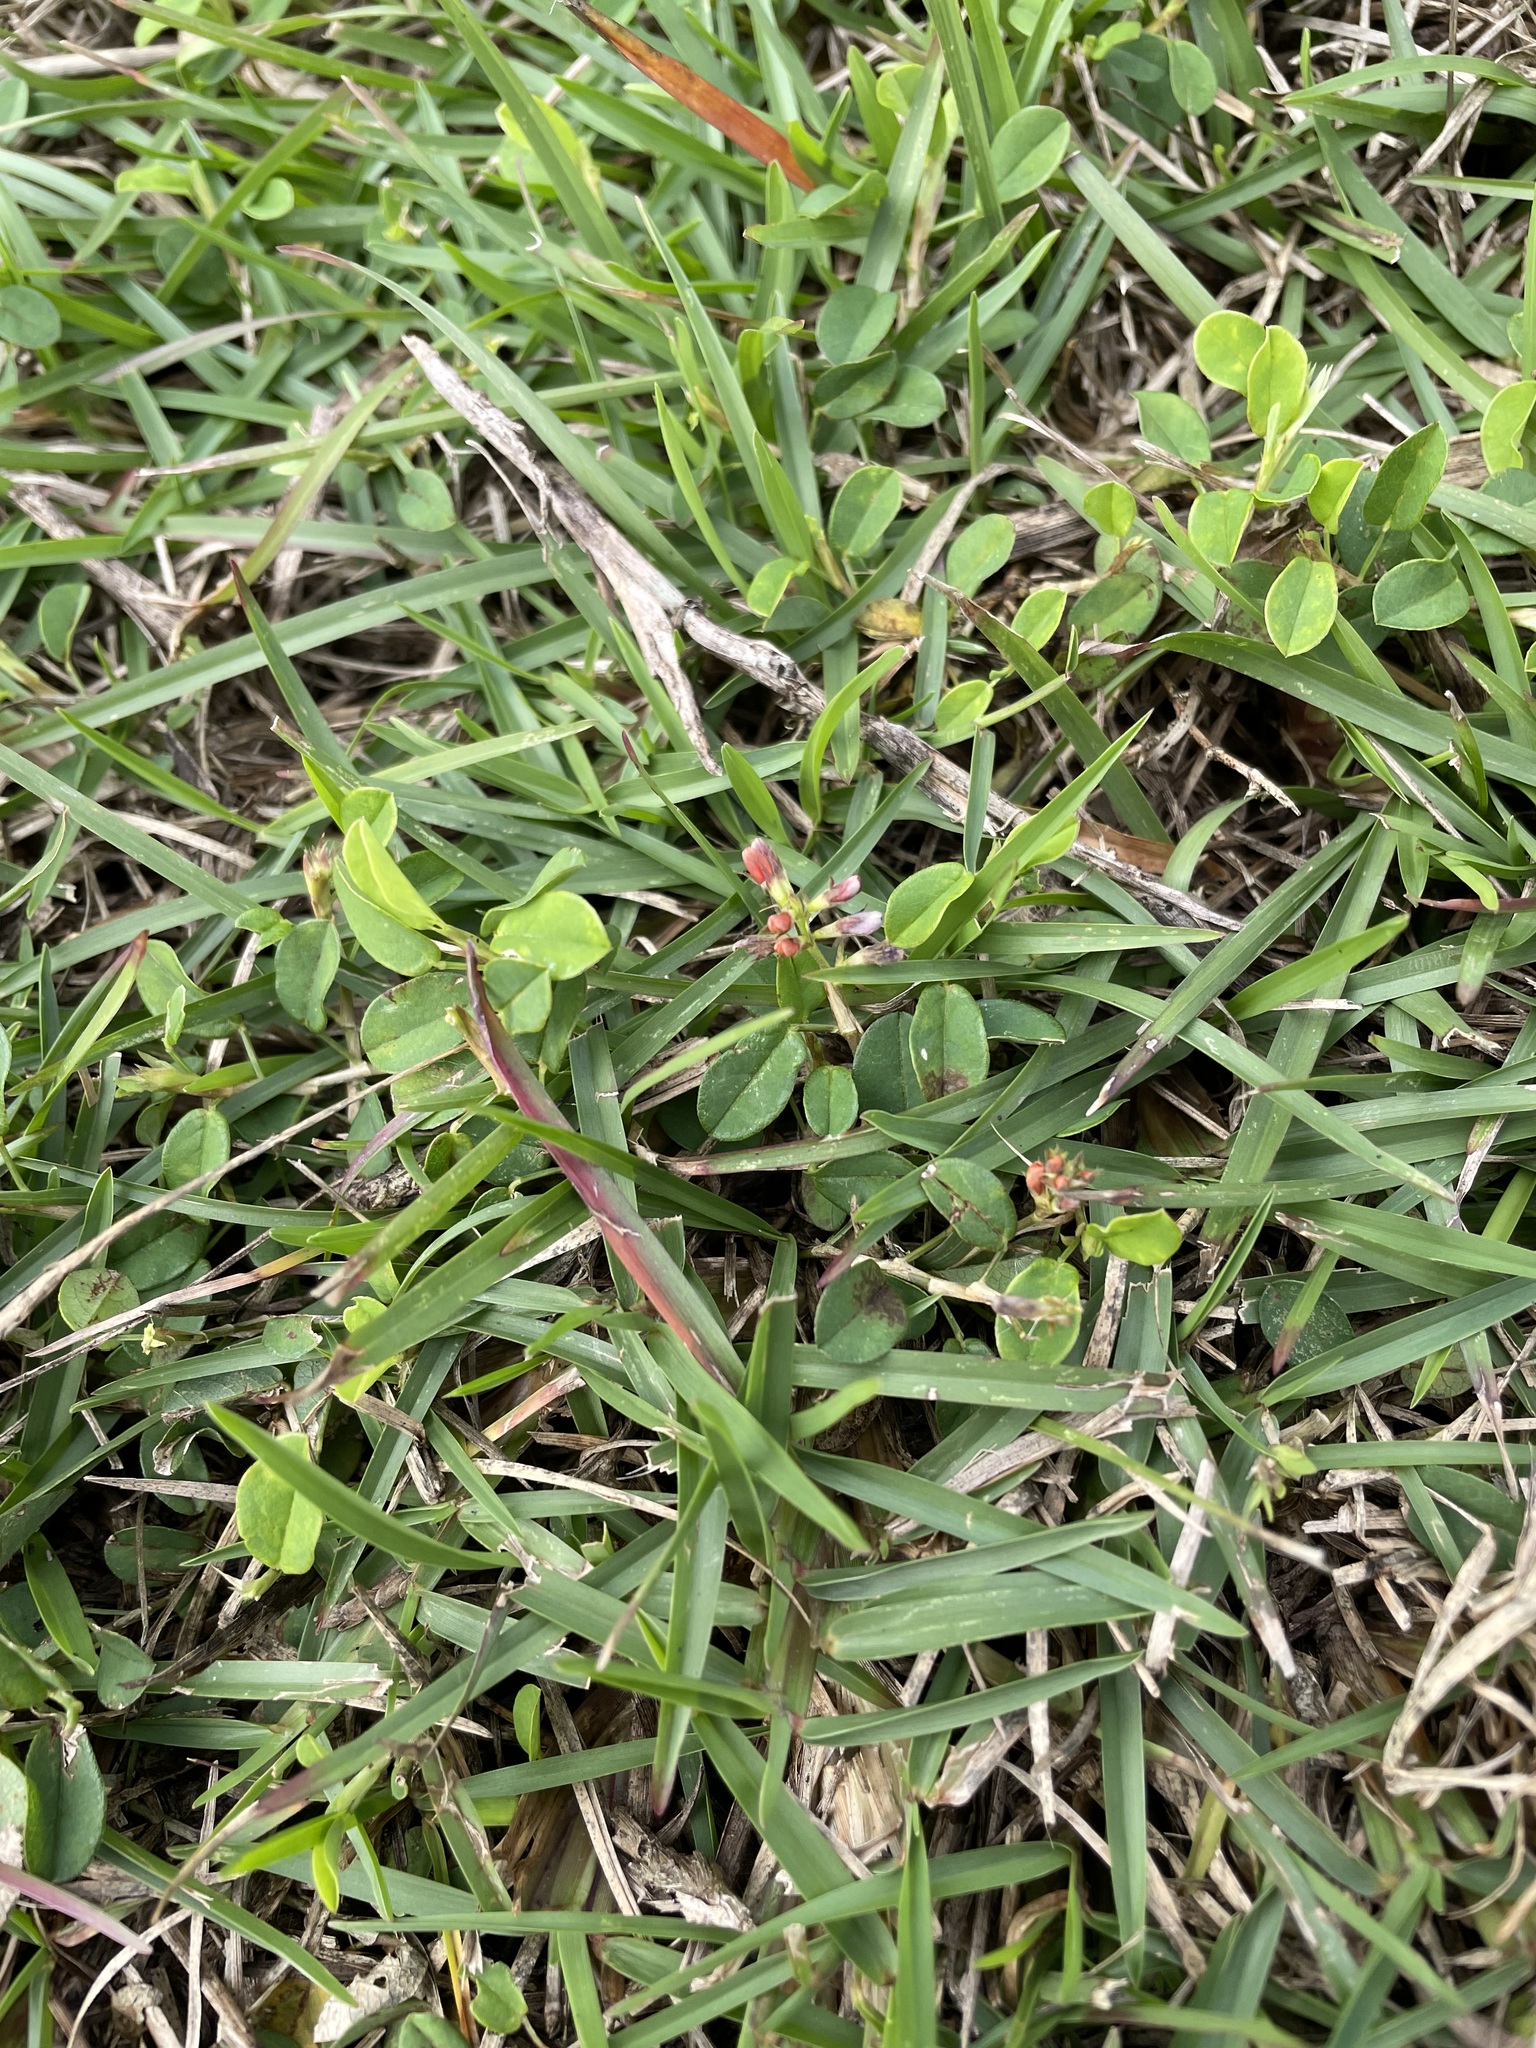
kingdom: Plantae
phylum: Tracheophyta
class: Magnoliopsida
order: Fabales
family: Fabaceae
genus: Alysicarpus
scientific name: Alysicarpus vaginalis
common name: White moneywort
